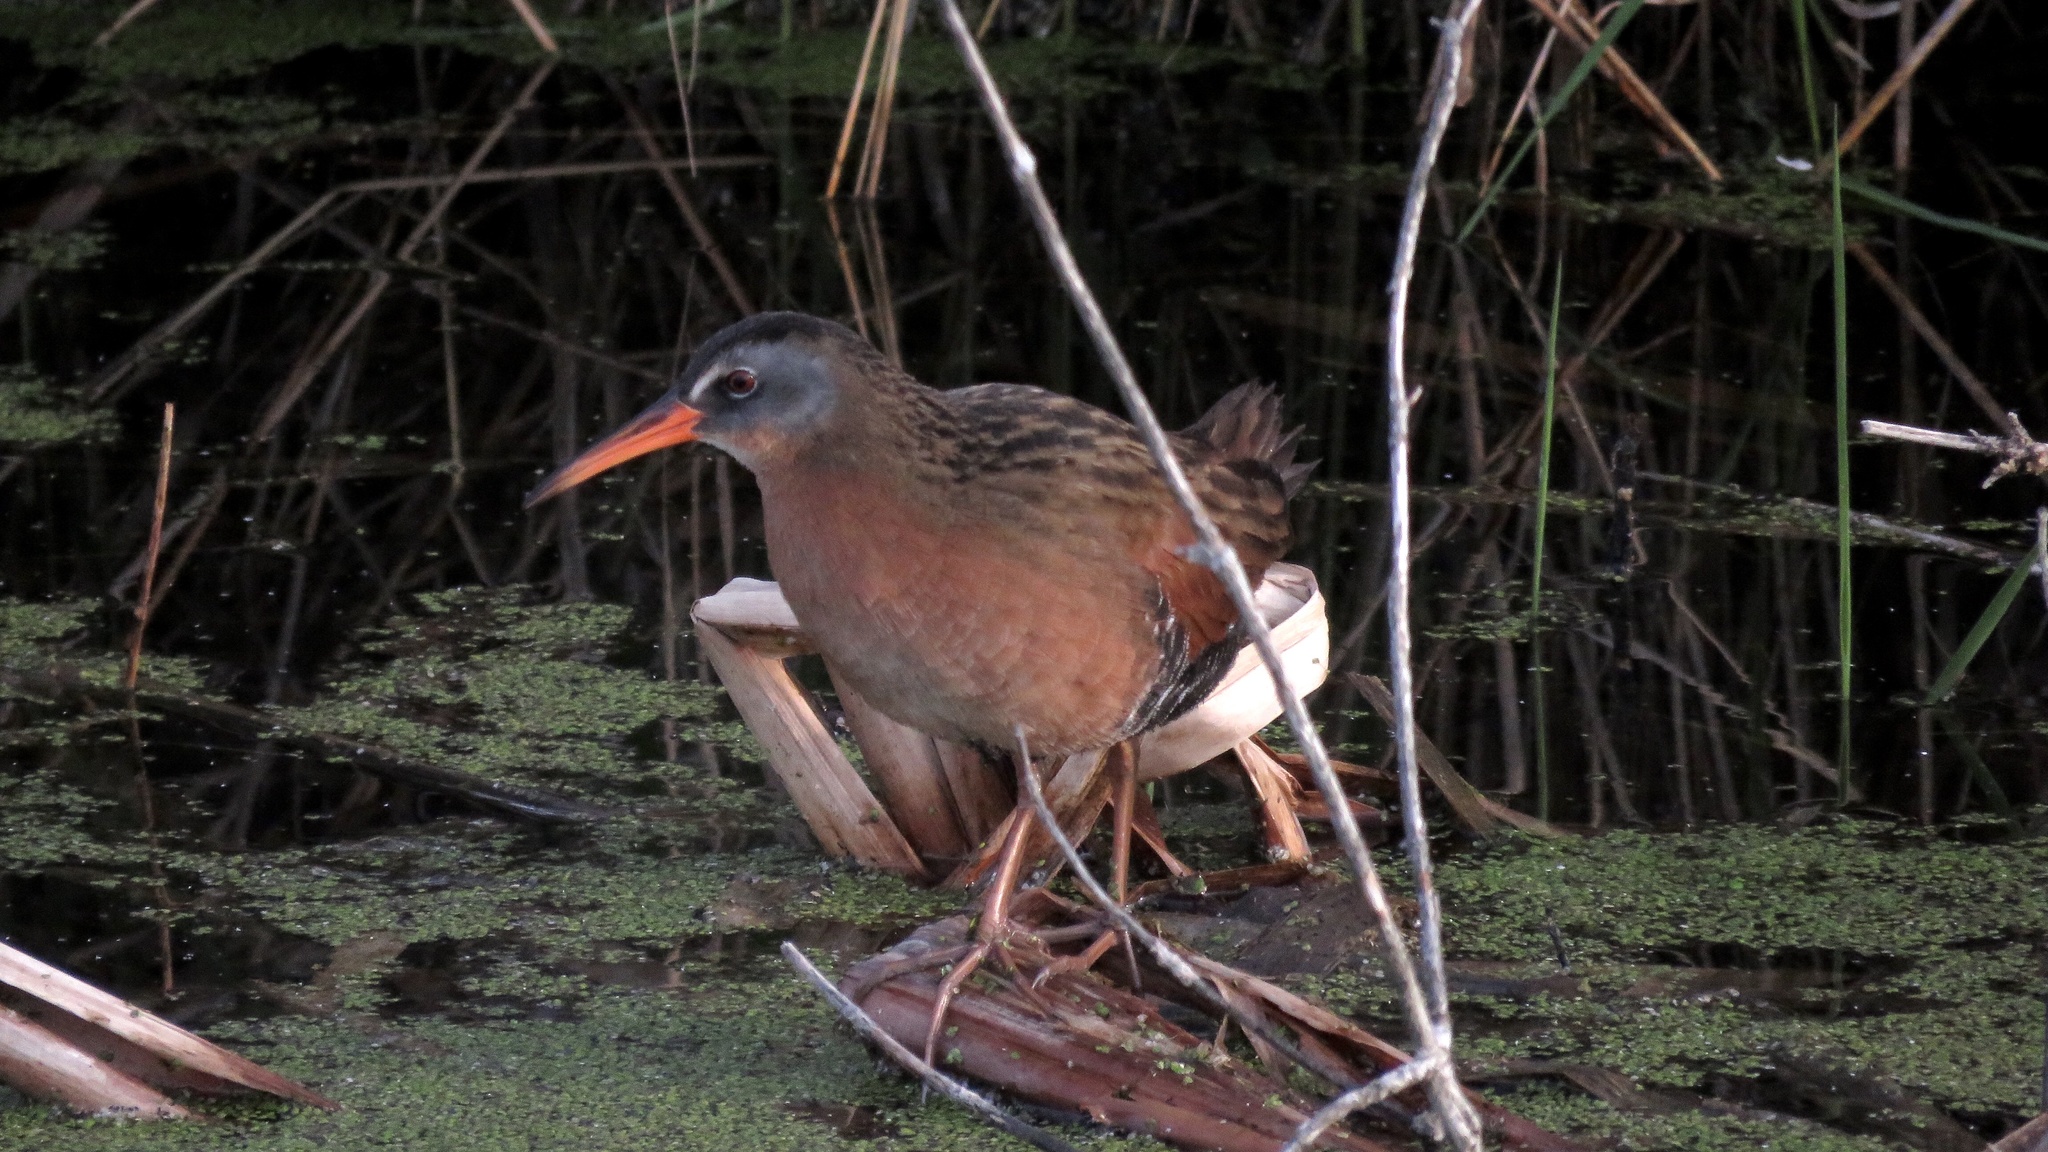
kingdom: Animalia
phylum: Chordata
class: Aves
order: Gruiformes
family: Rallidae
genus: Rallus
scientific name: Rallus limicola
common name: Virginia rail
